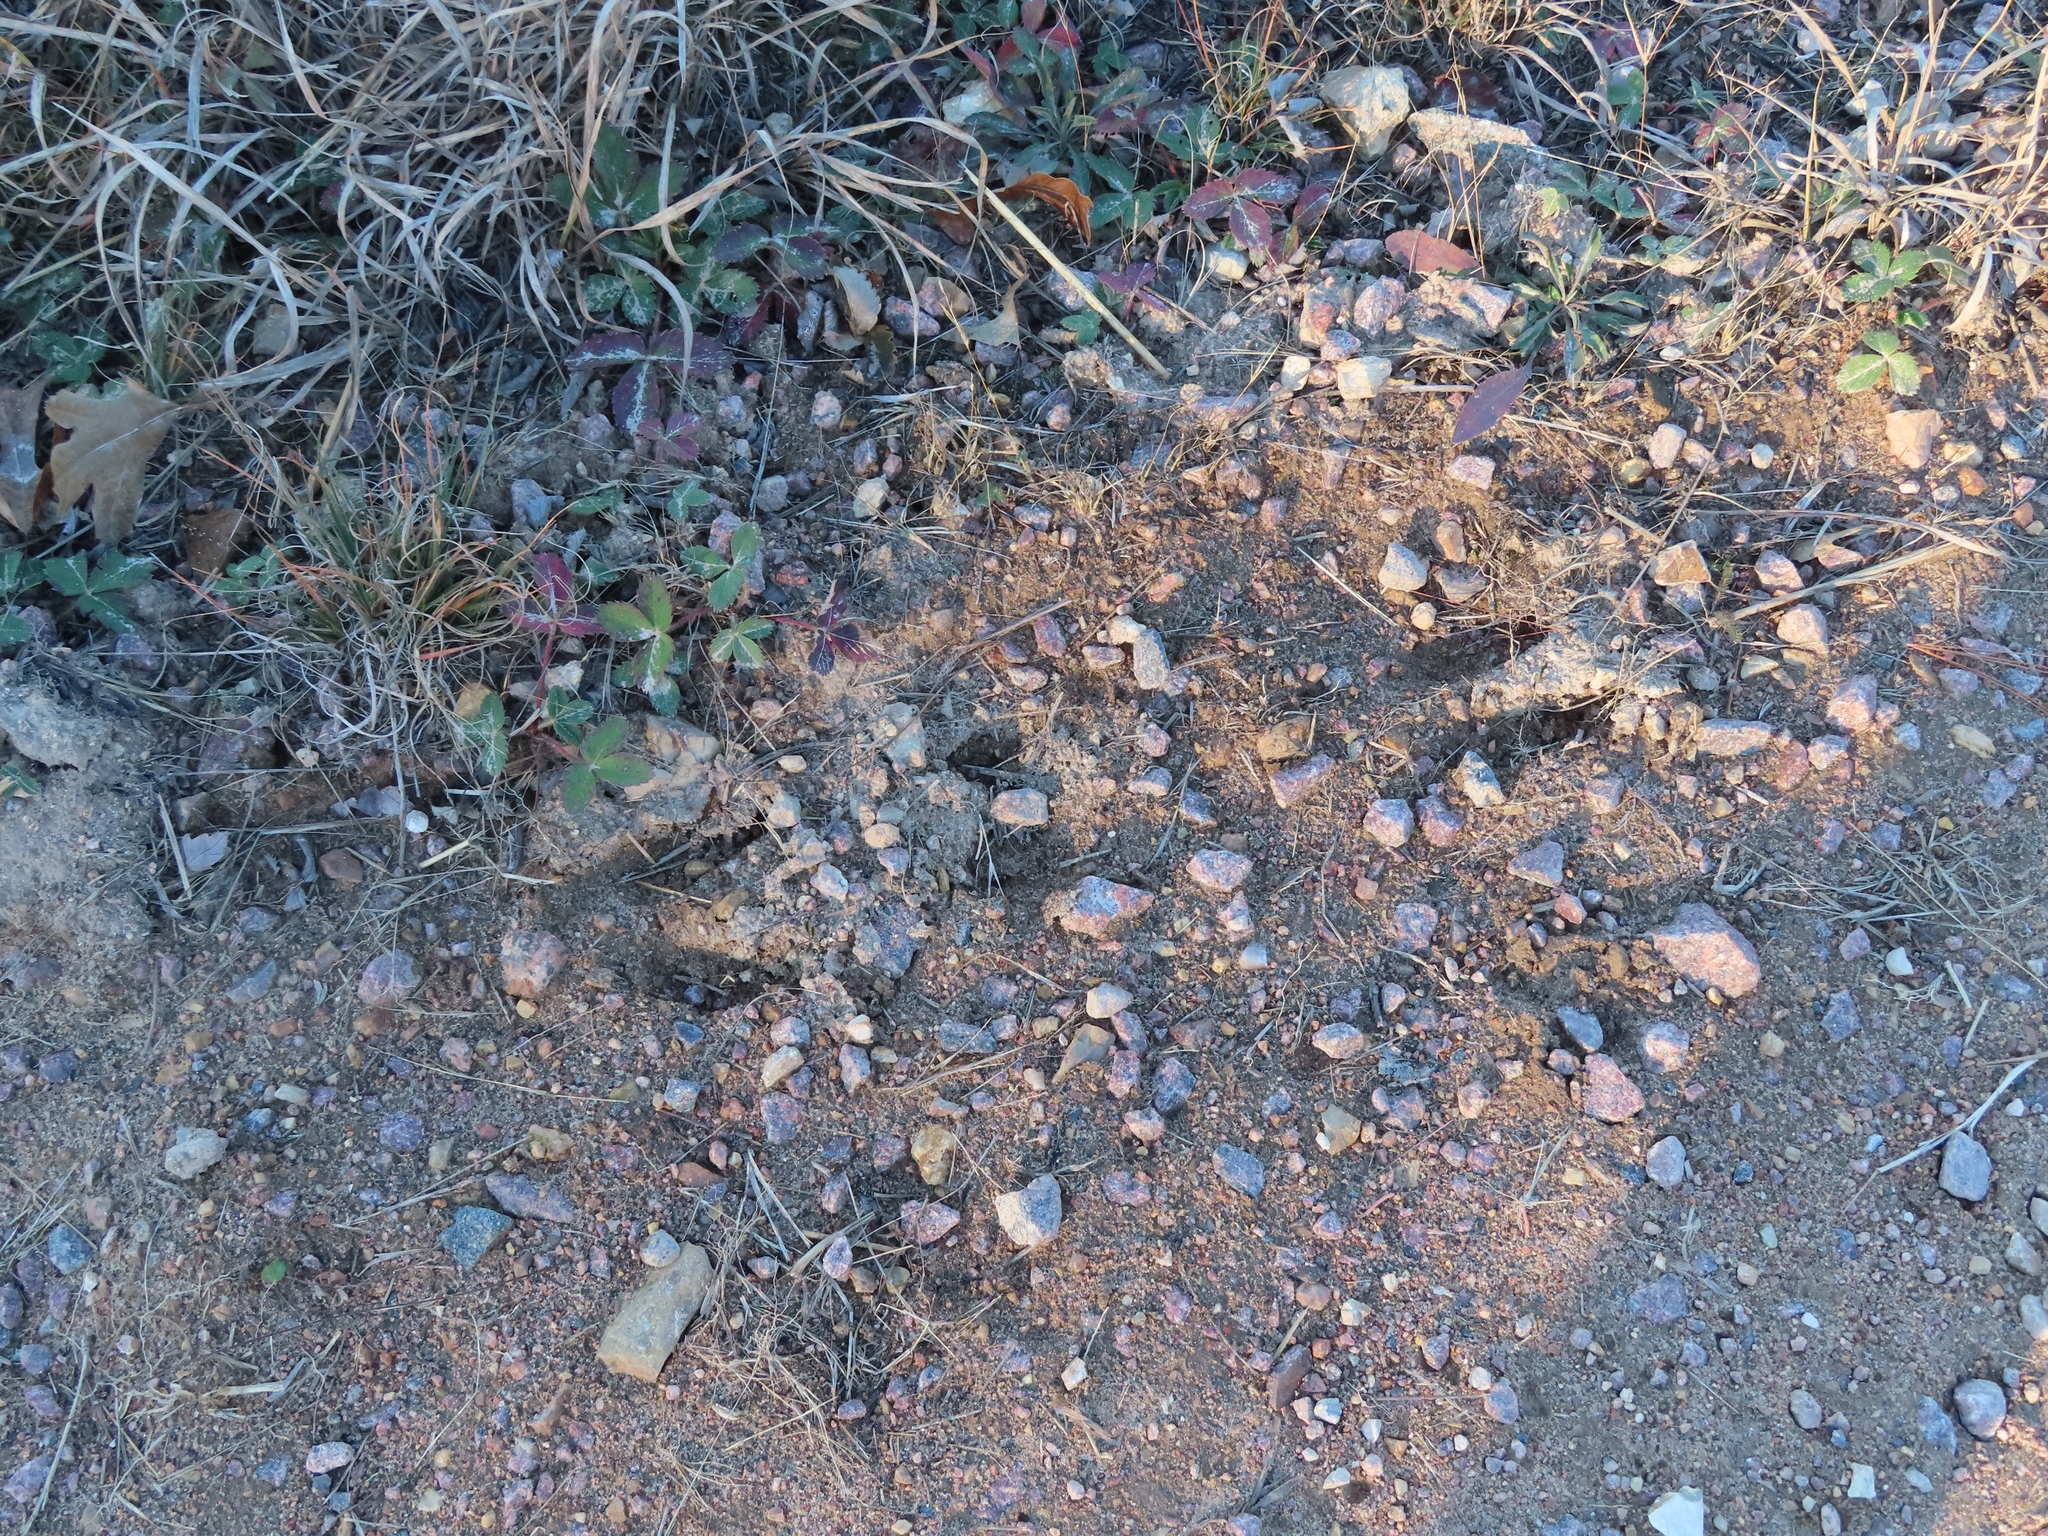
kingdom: Animalia
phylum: Chordata
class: Mammalia
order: Artiodactyla
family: Cervidae
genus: Odocoileus
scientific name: Odocoileus virginianus
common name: White-tailed deer
